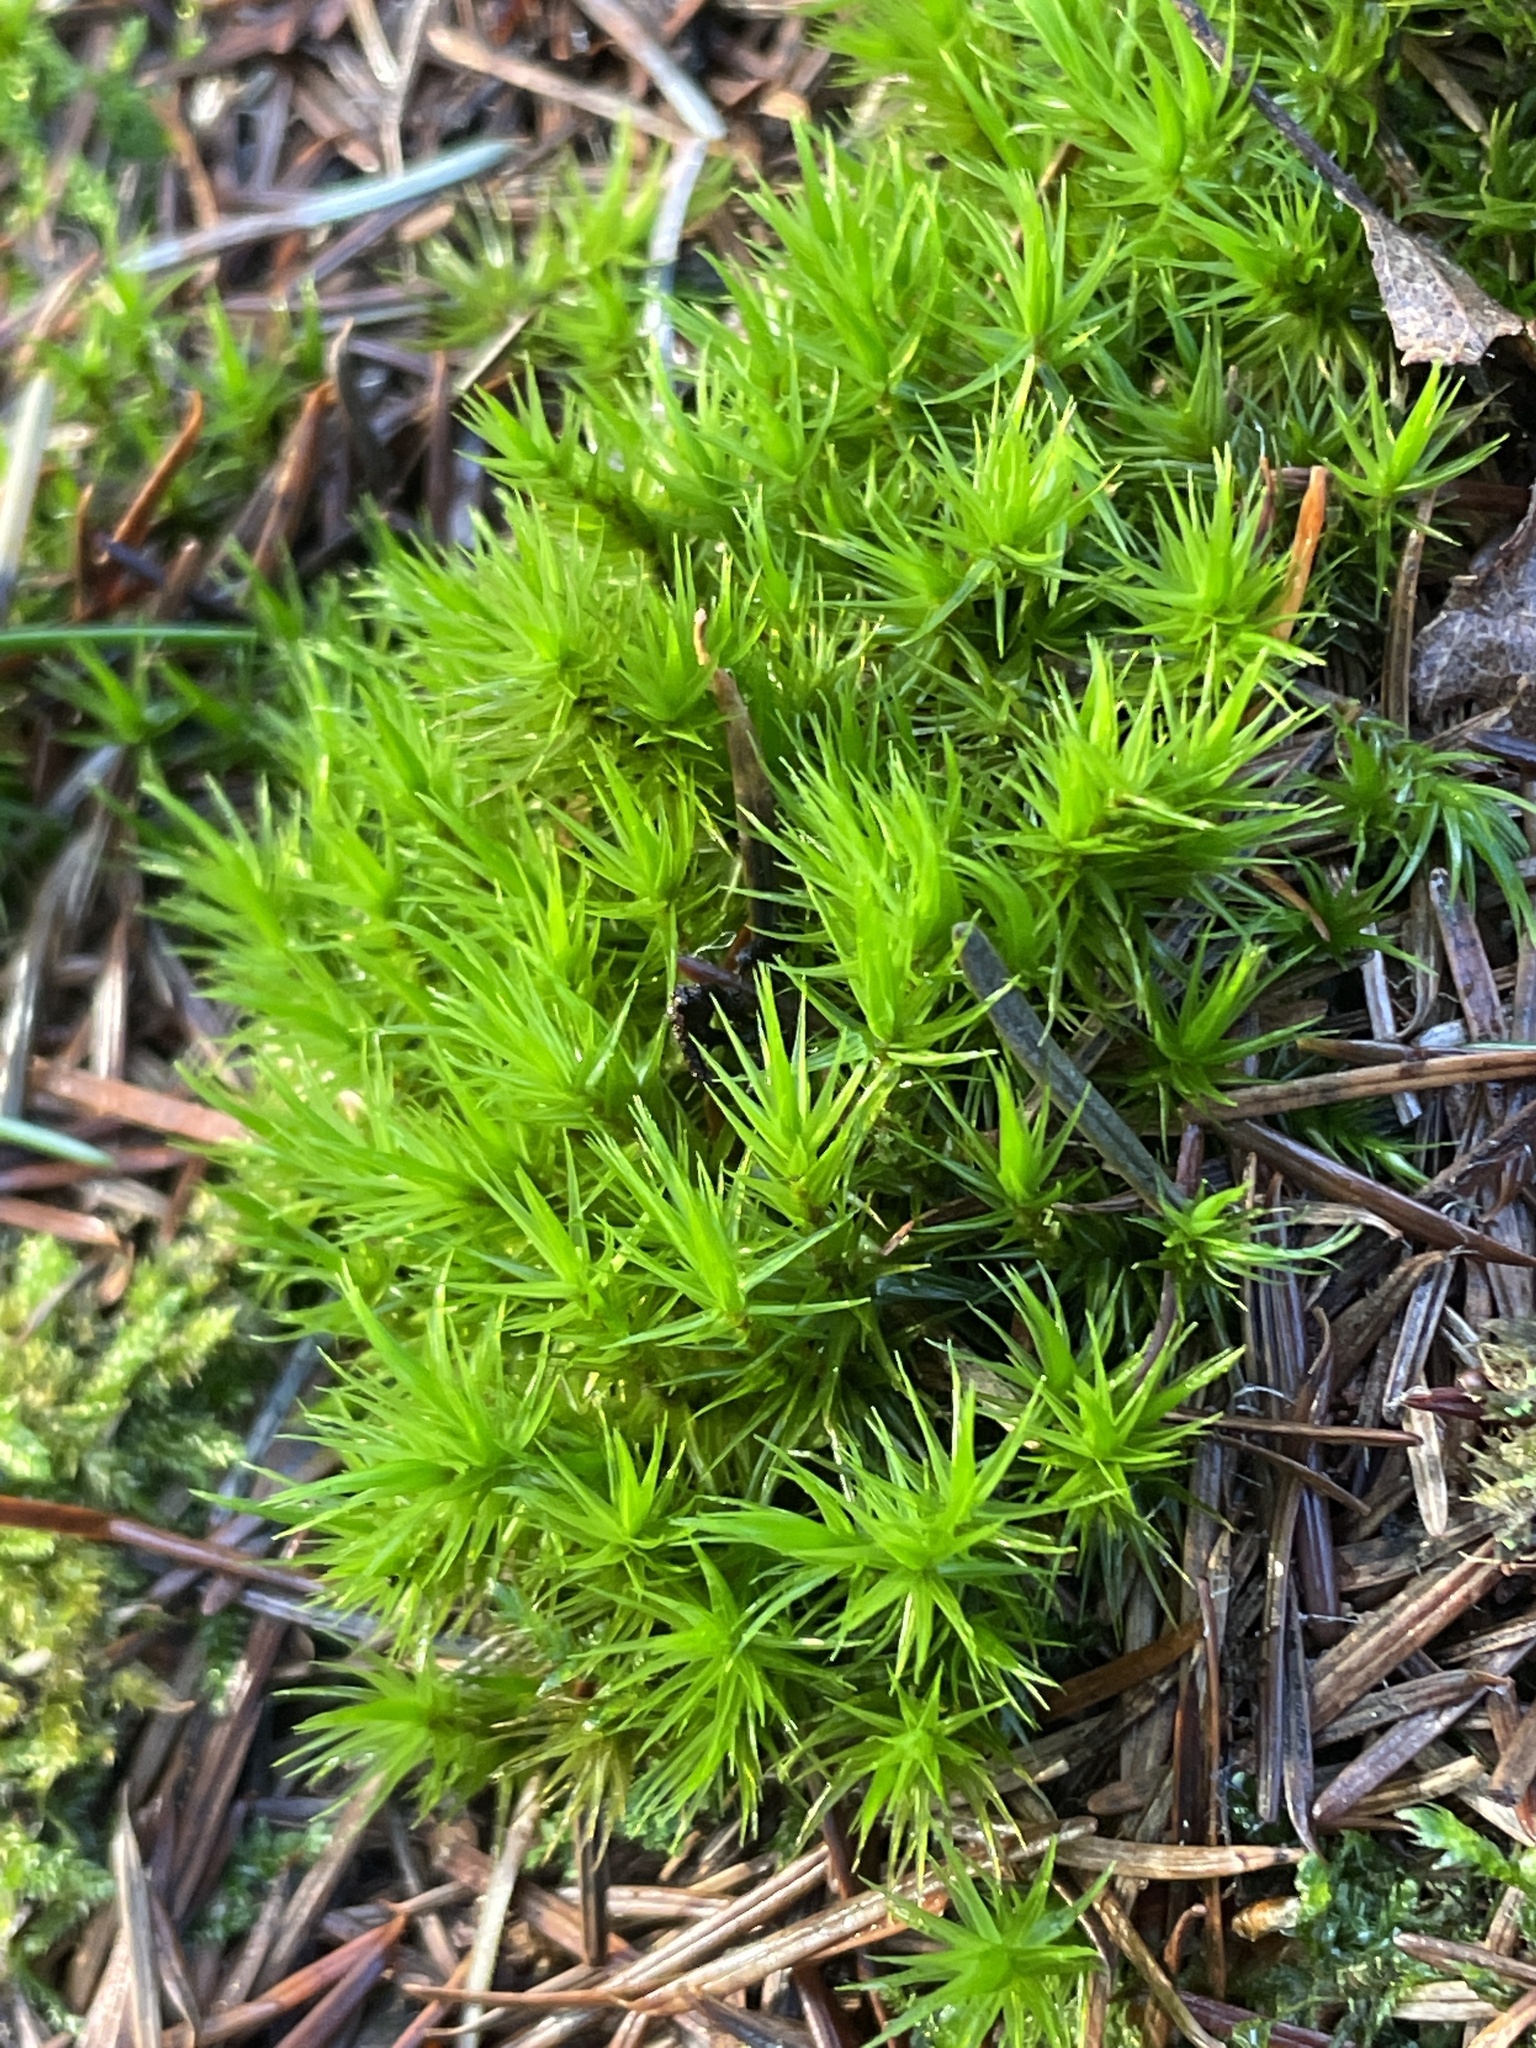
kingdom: Plantae
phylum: Bryophyta
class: Bryopsida
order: Dicranales
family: Dicranaceae
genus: Dicranum
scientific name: Dicranum scoparium
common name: Broom fork-moss
